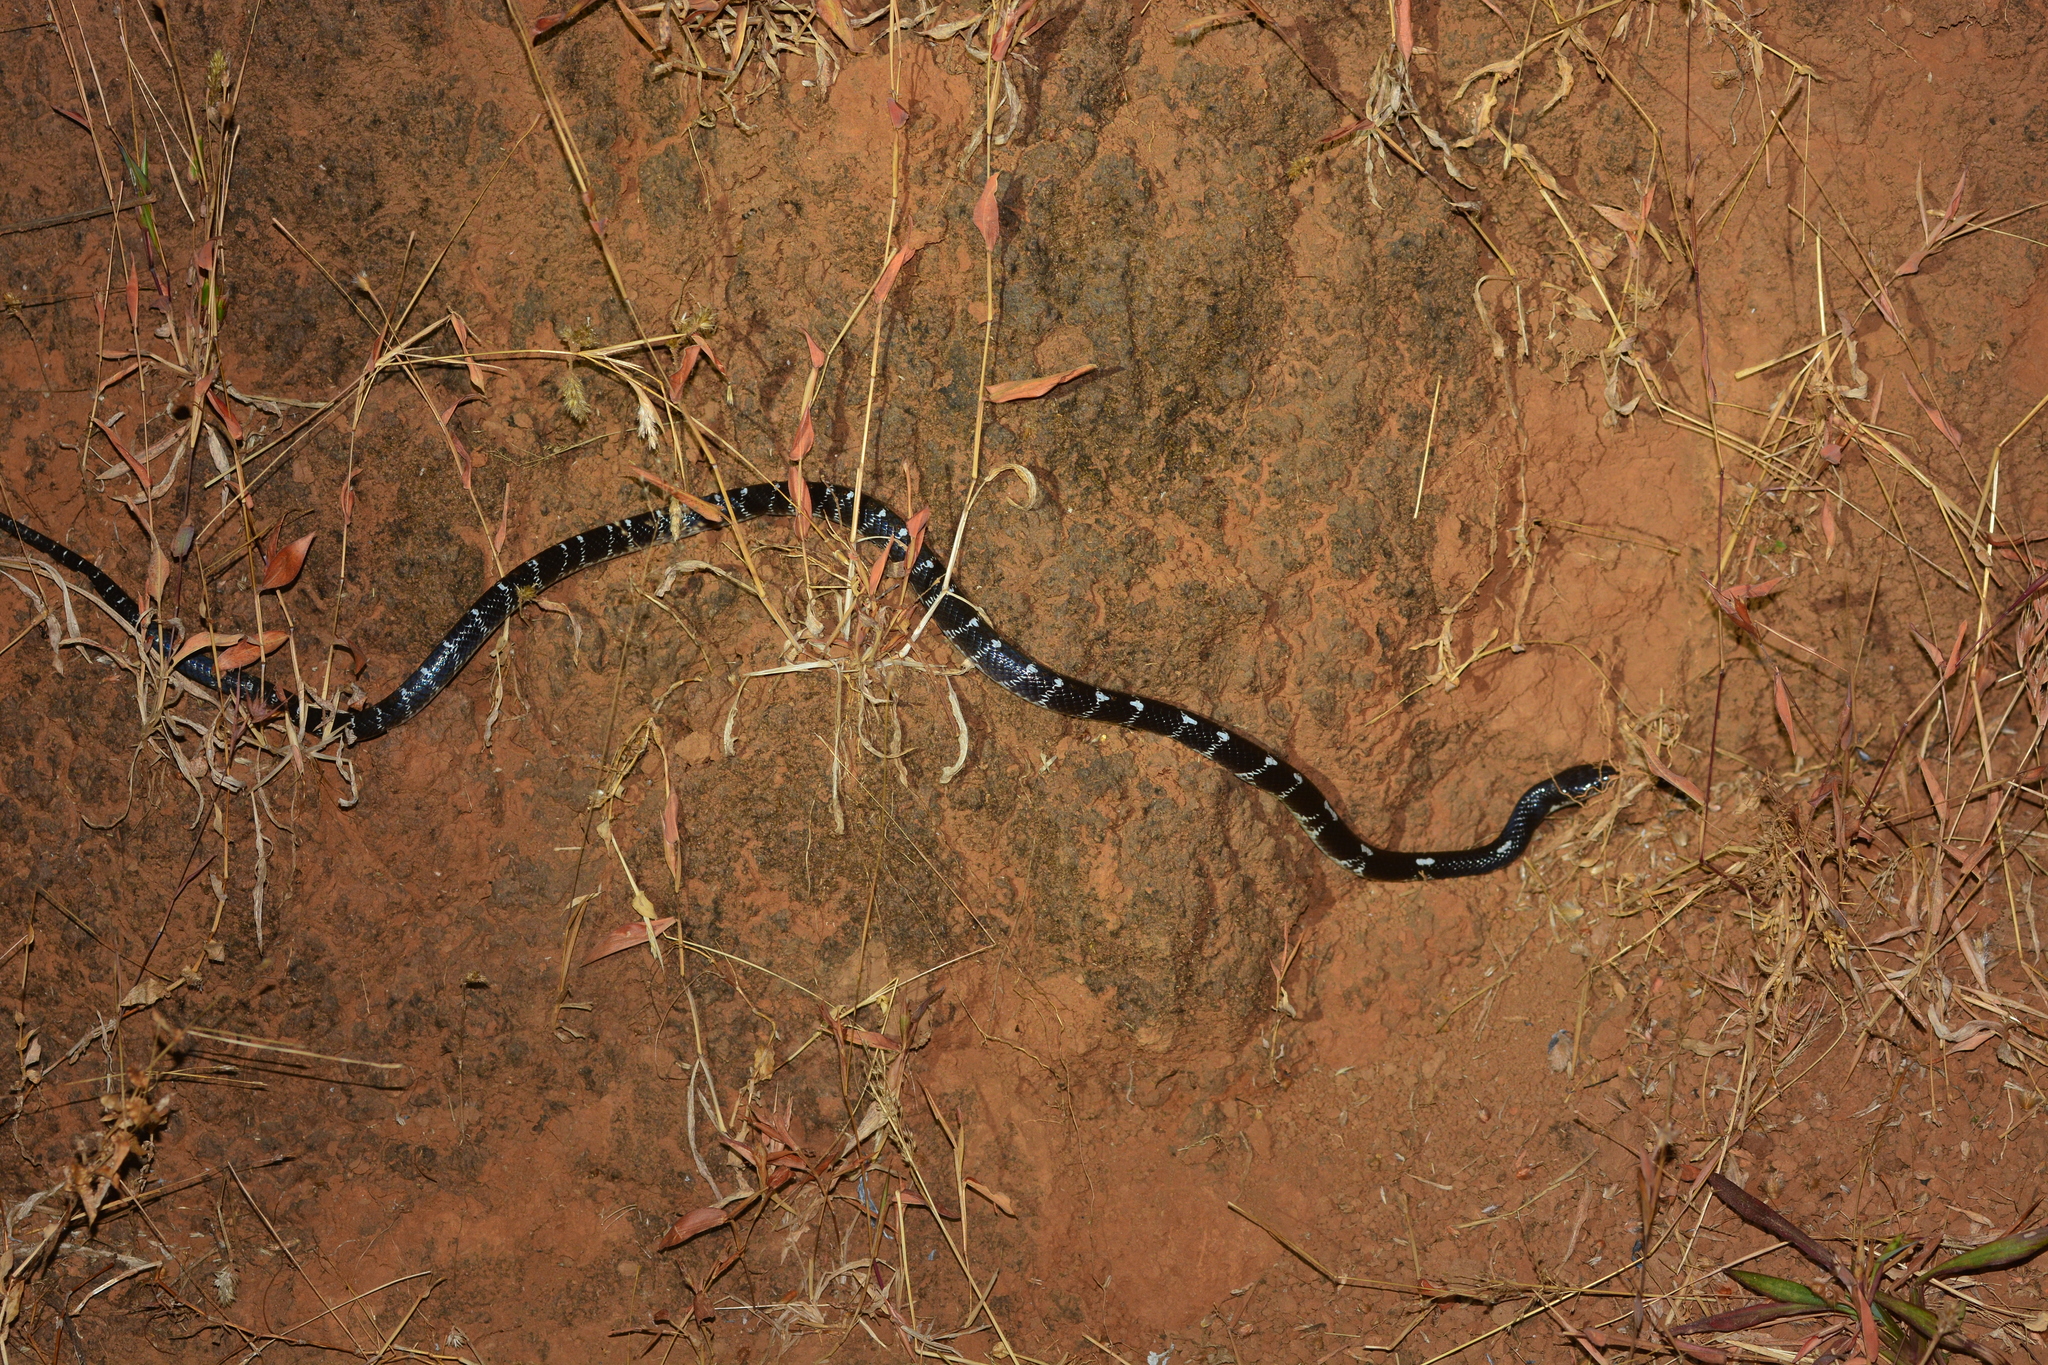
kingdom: Animalia
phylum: Chordata
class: Squamata
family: Elapidae
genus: Bungarus
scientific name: Bungarus caeruleus
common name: Common krait
